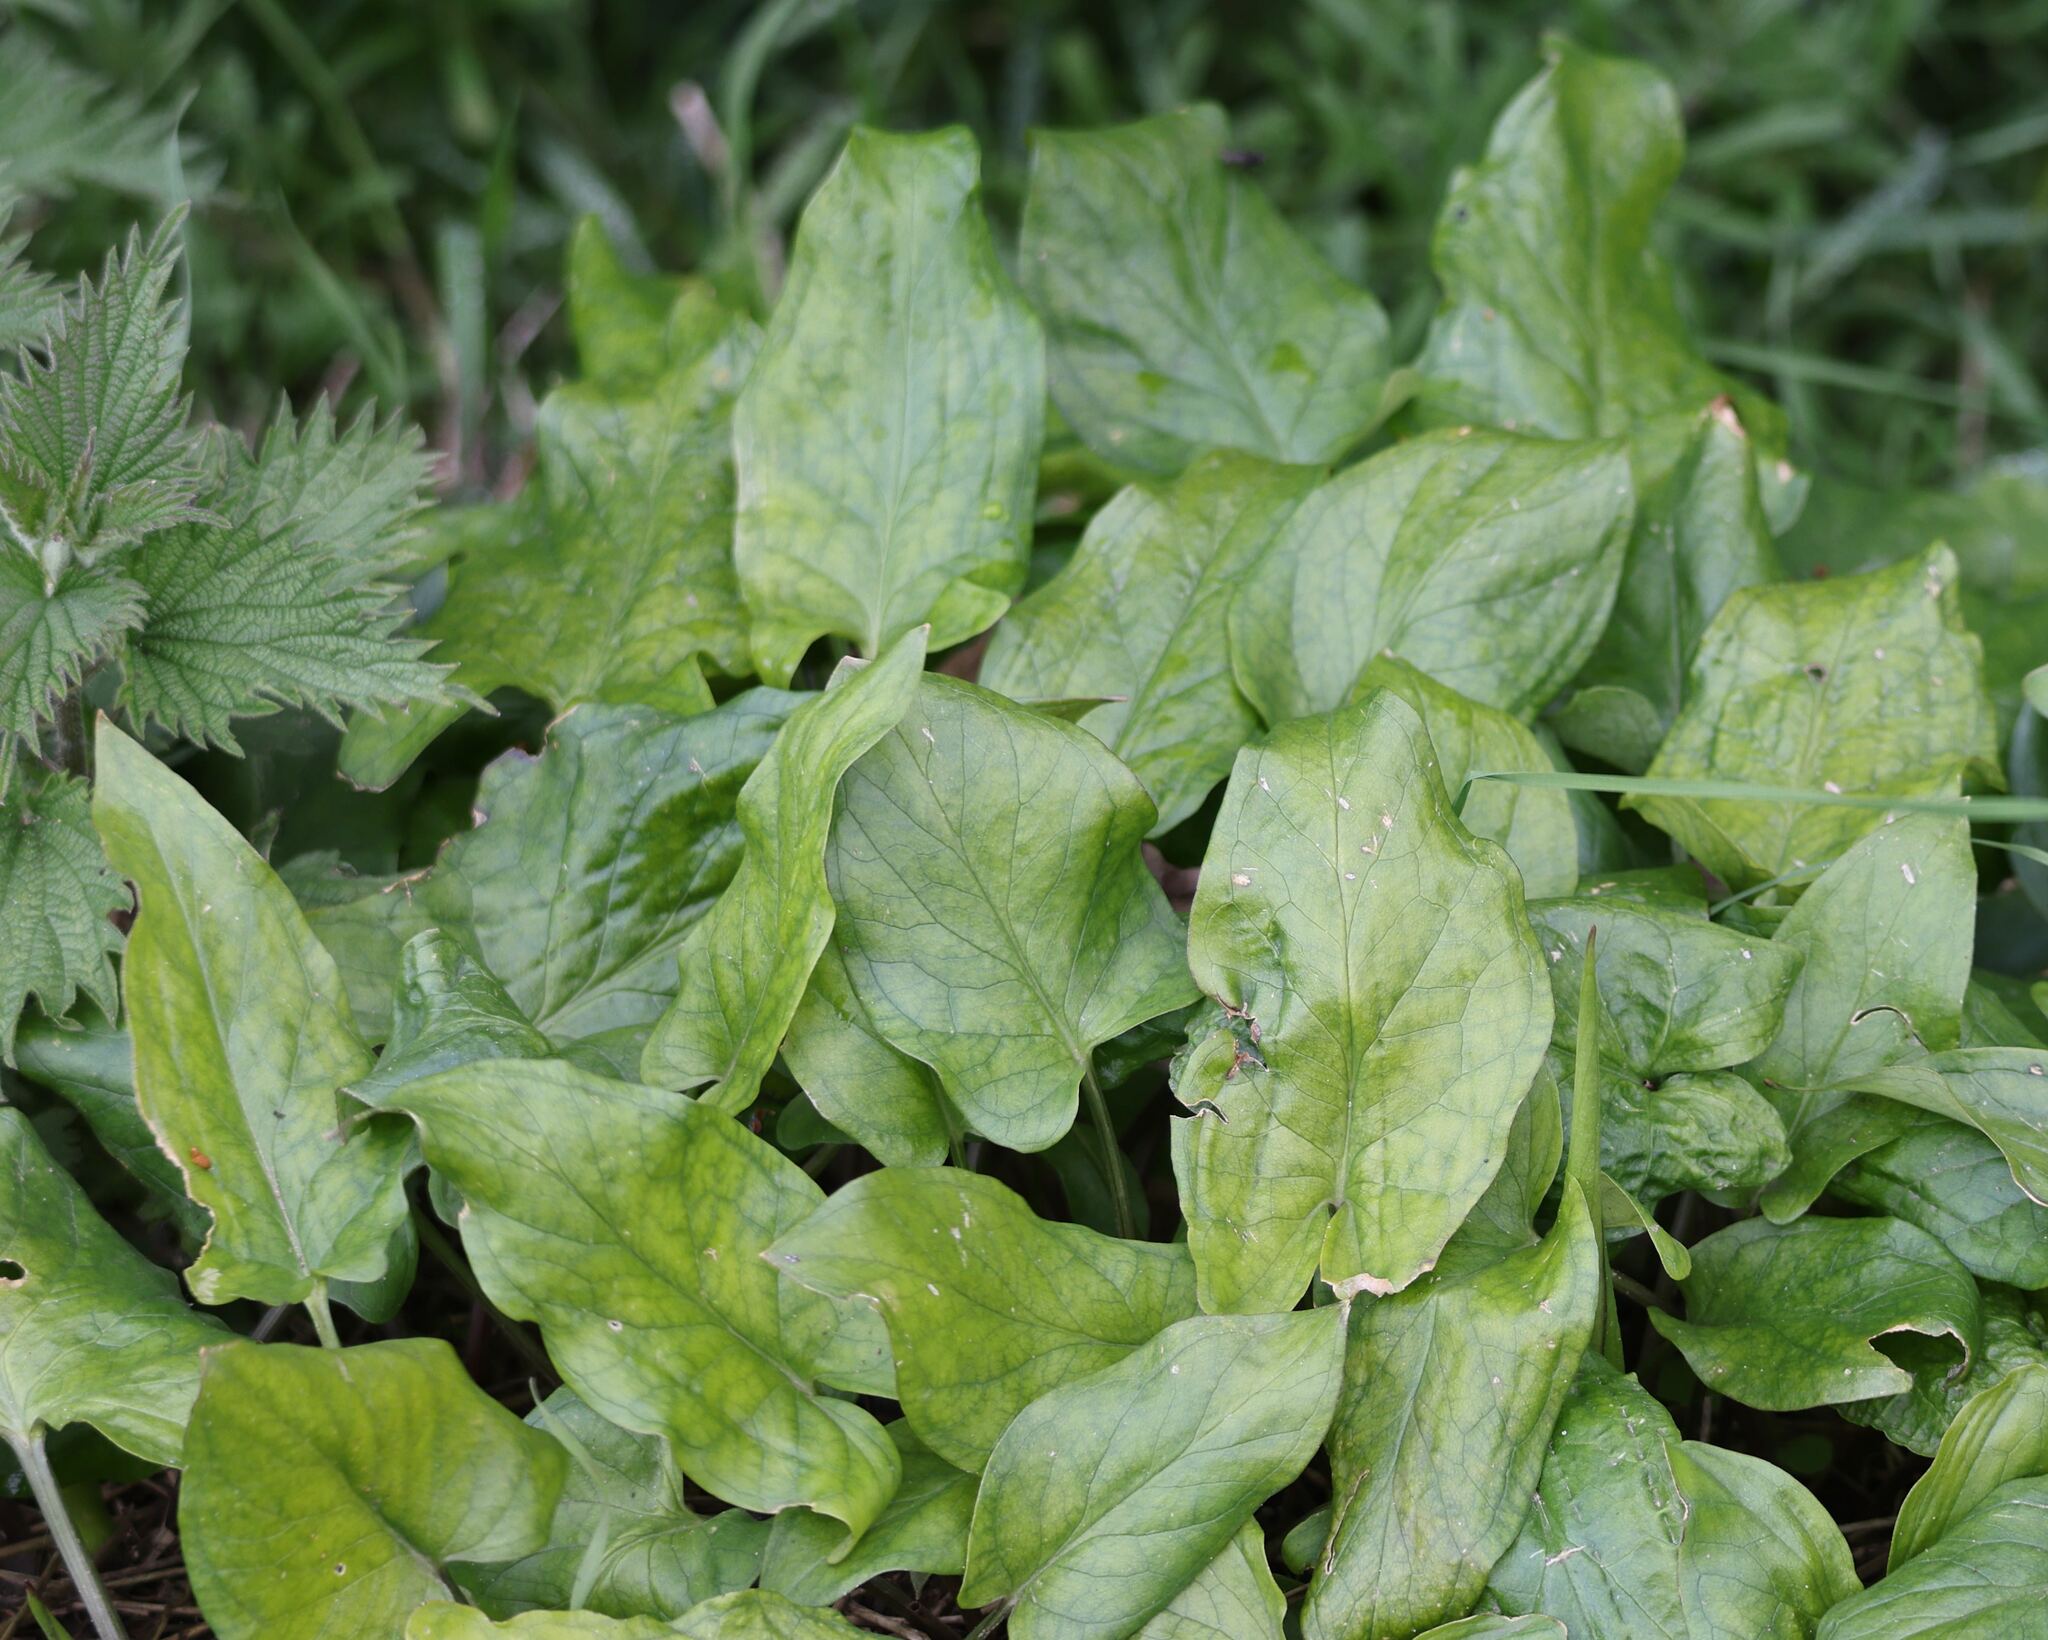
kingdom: Plantae
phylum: Tracheophyta
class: Liliopsida
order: Alismatales
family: Araceae
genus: Arum
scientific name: Arum maculatum
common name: Lords-and-ladies
